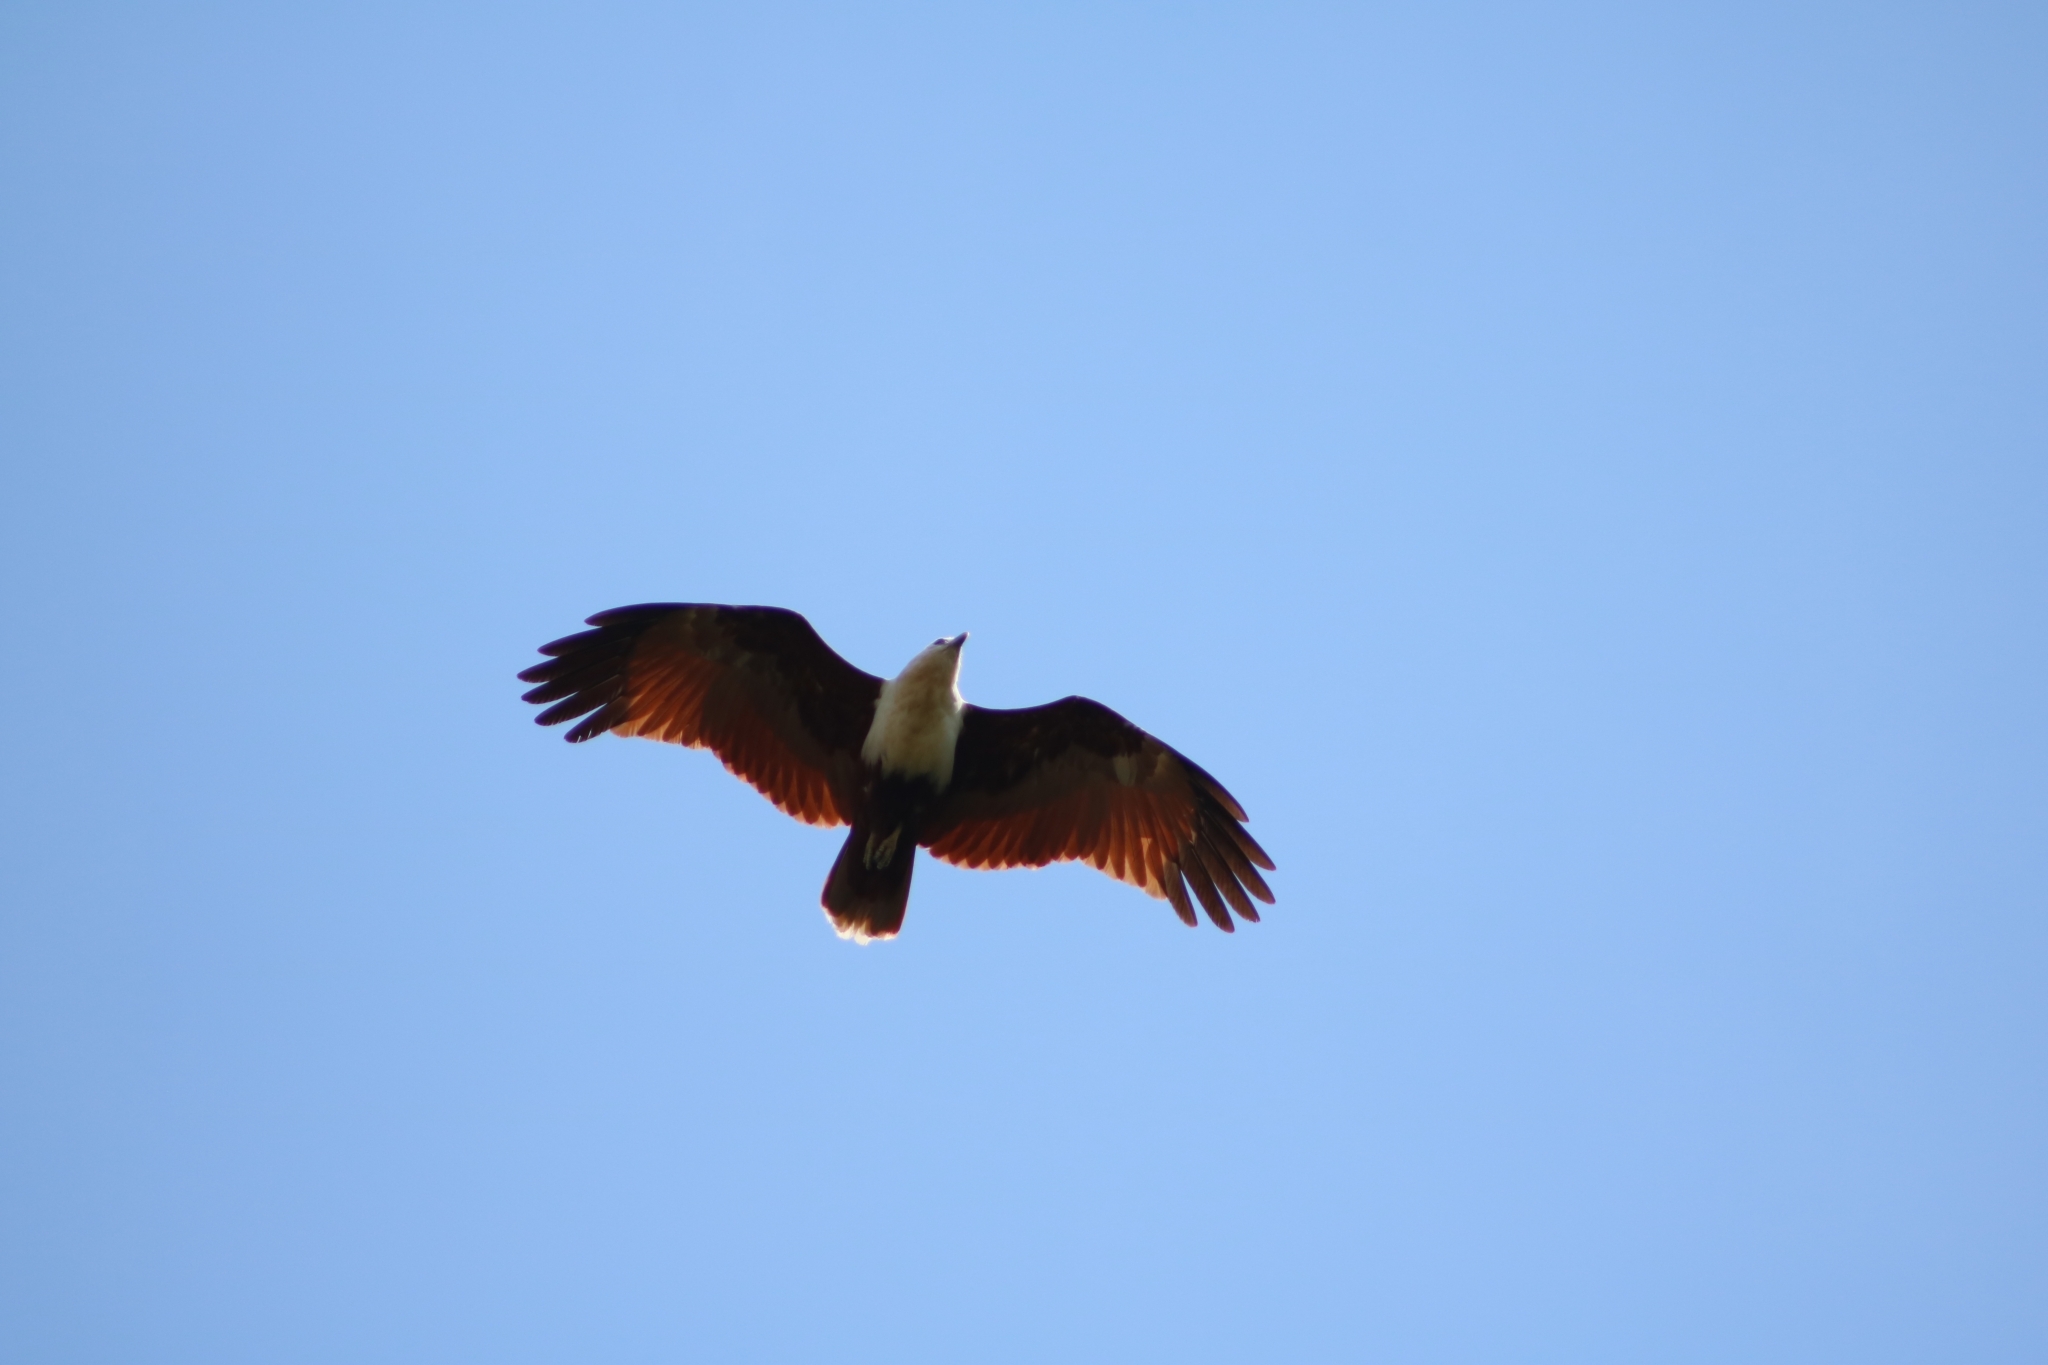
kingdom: Animalia
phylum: Chordata
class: Aves
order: Accipitriformes
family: Accipitridae
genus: Haliastur
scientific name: Haliastur indus
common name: Brahminy kite
